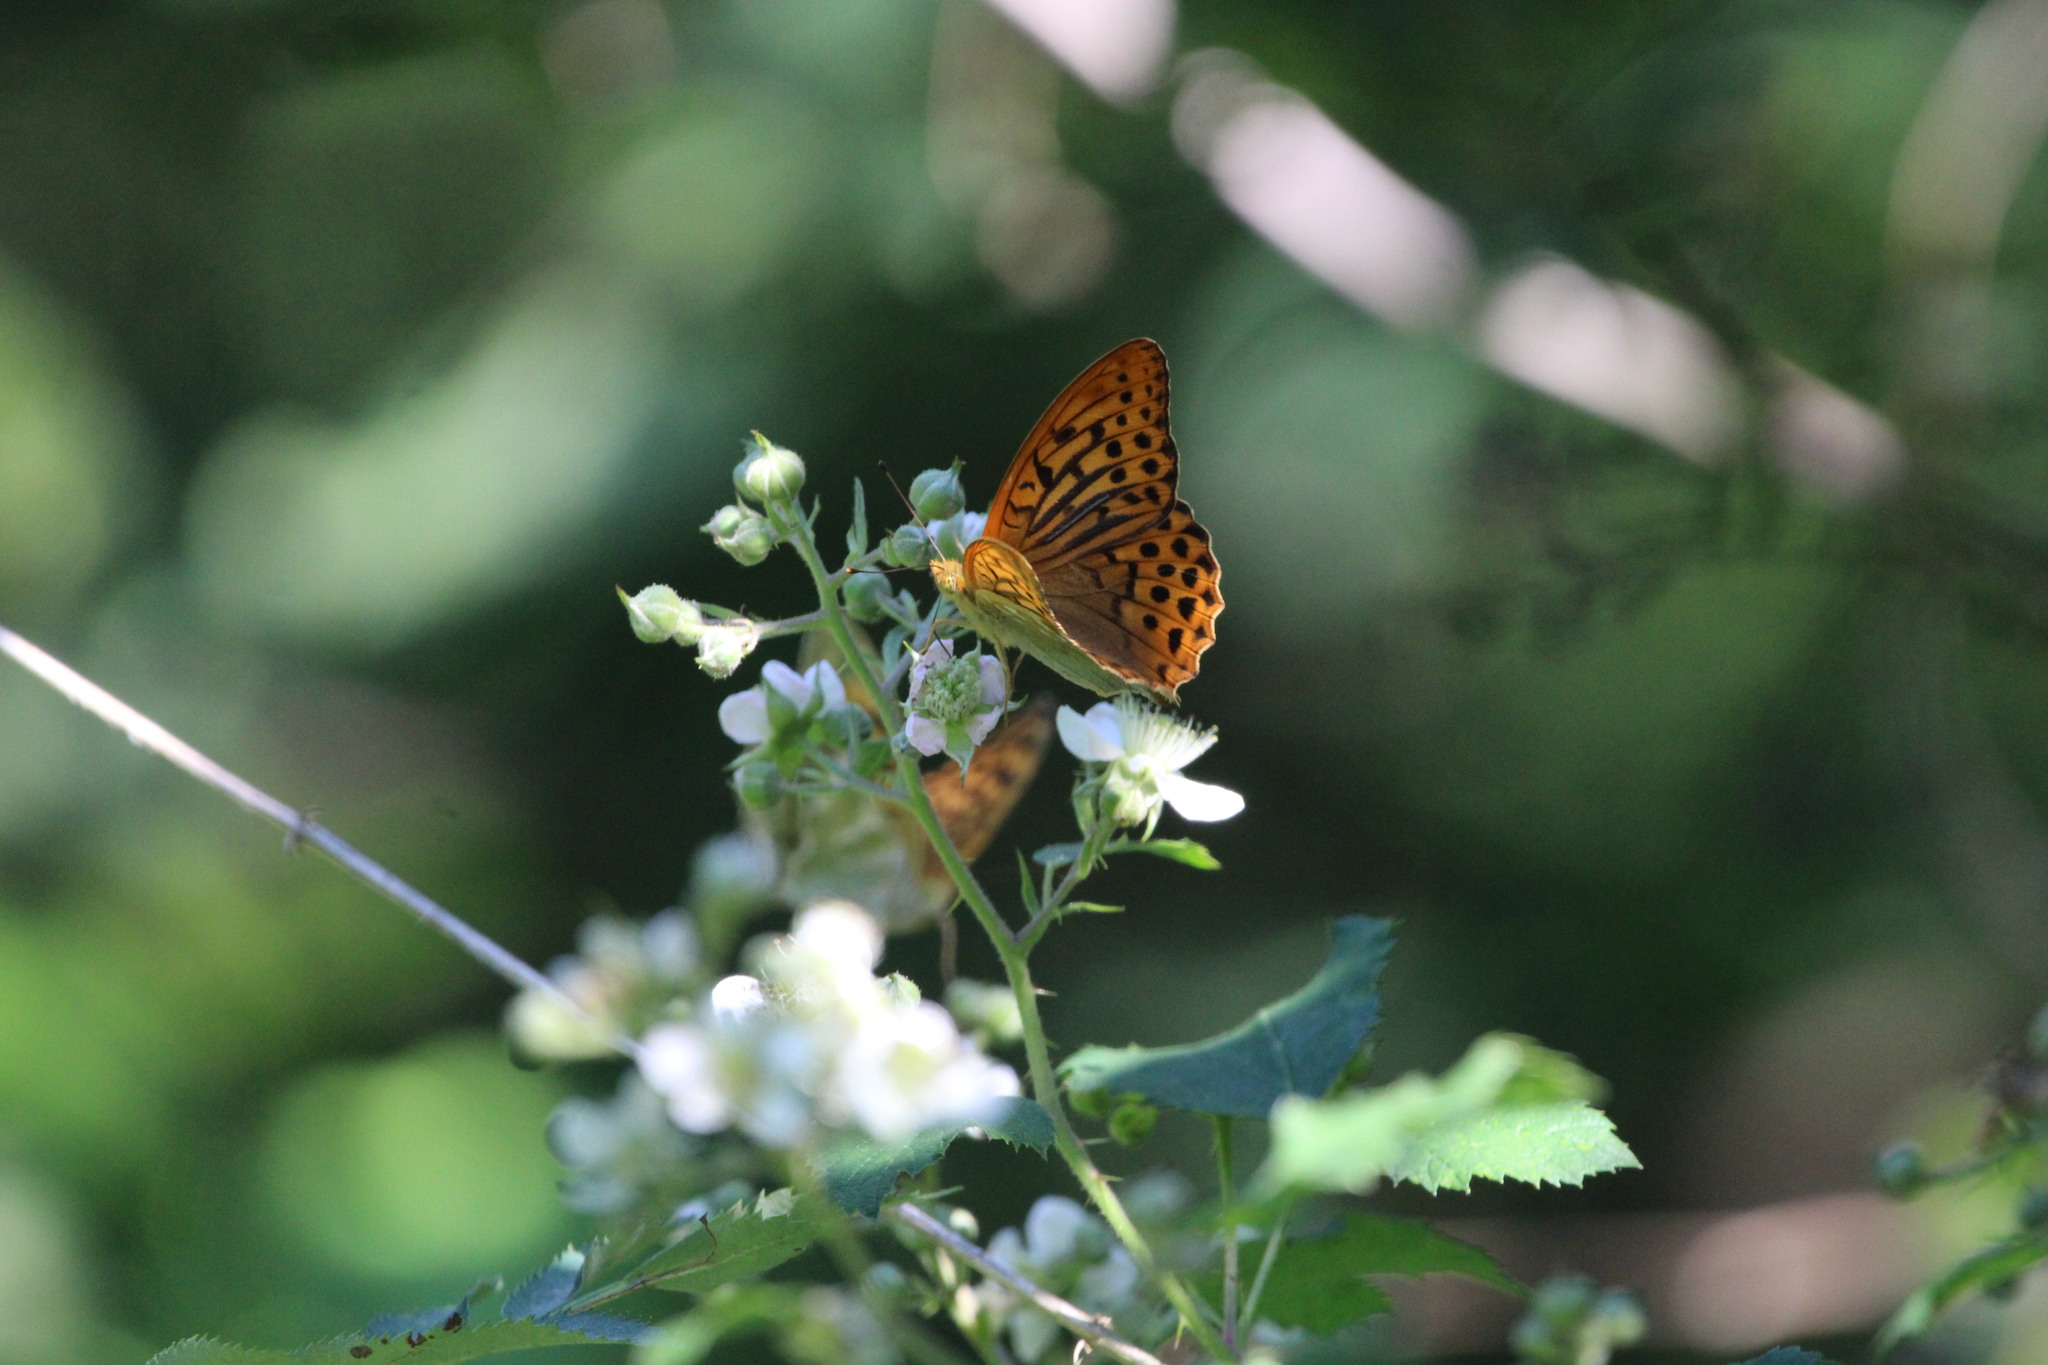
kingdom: Animalia
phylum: Arthropoda
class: Insecta
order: Lepidoptera
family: Nymphalidae
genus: Argynnis
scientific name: Argynnis paphia
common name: Silver-washed fritillary
